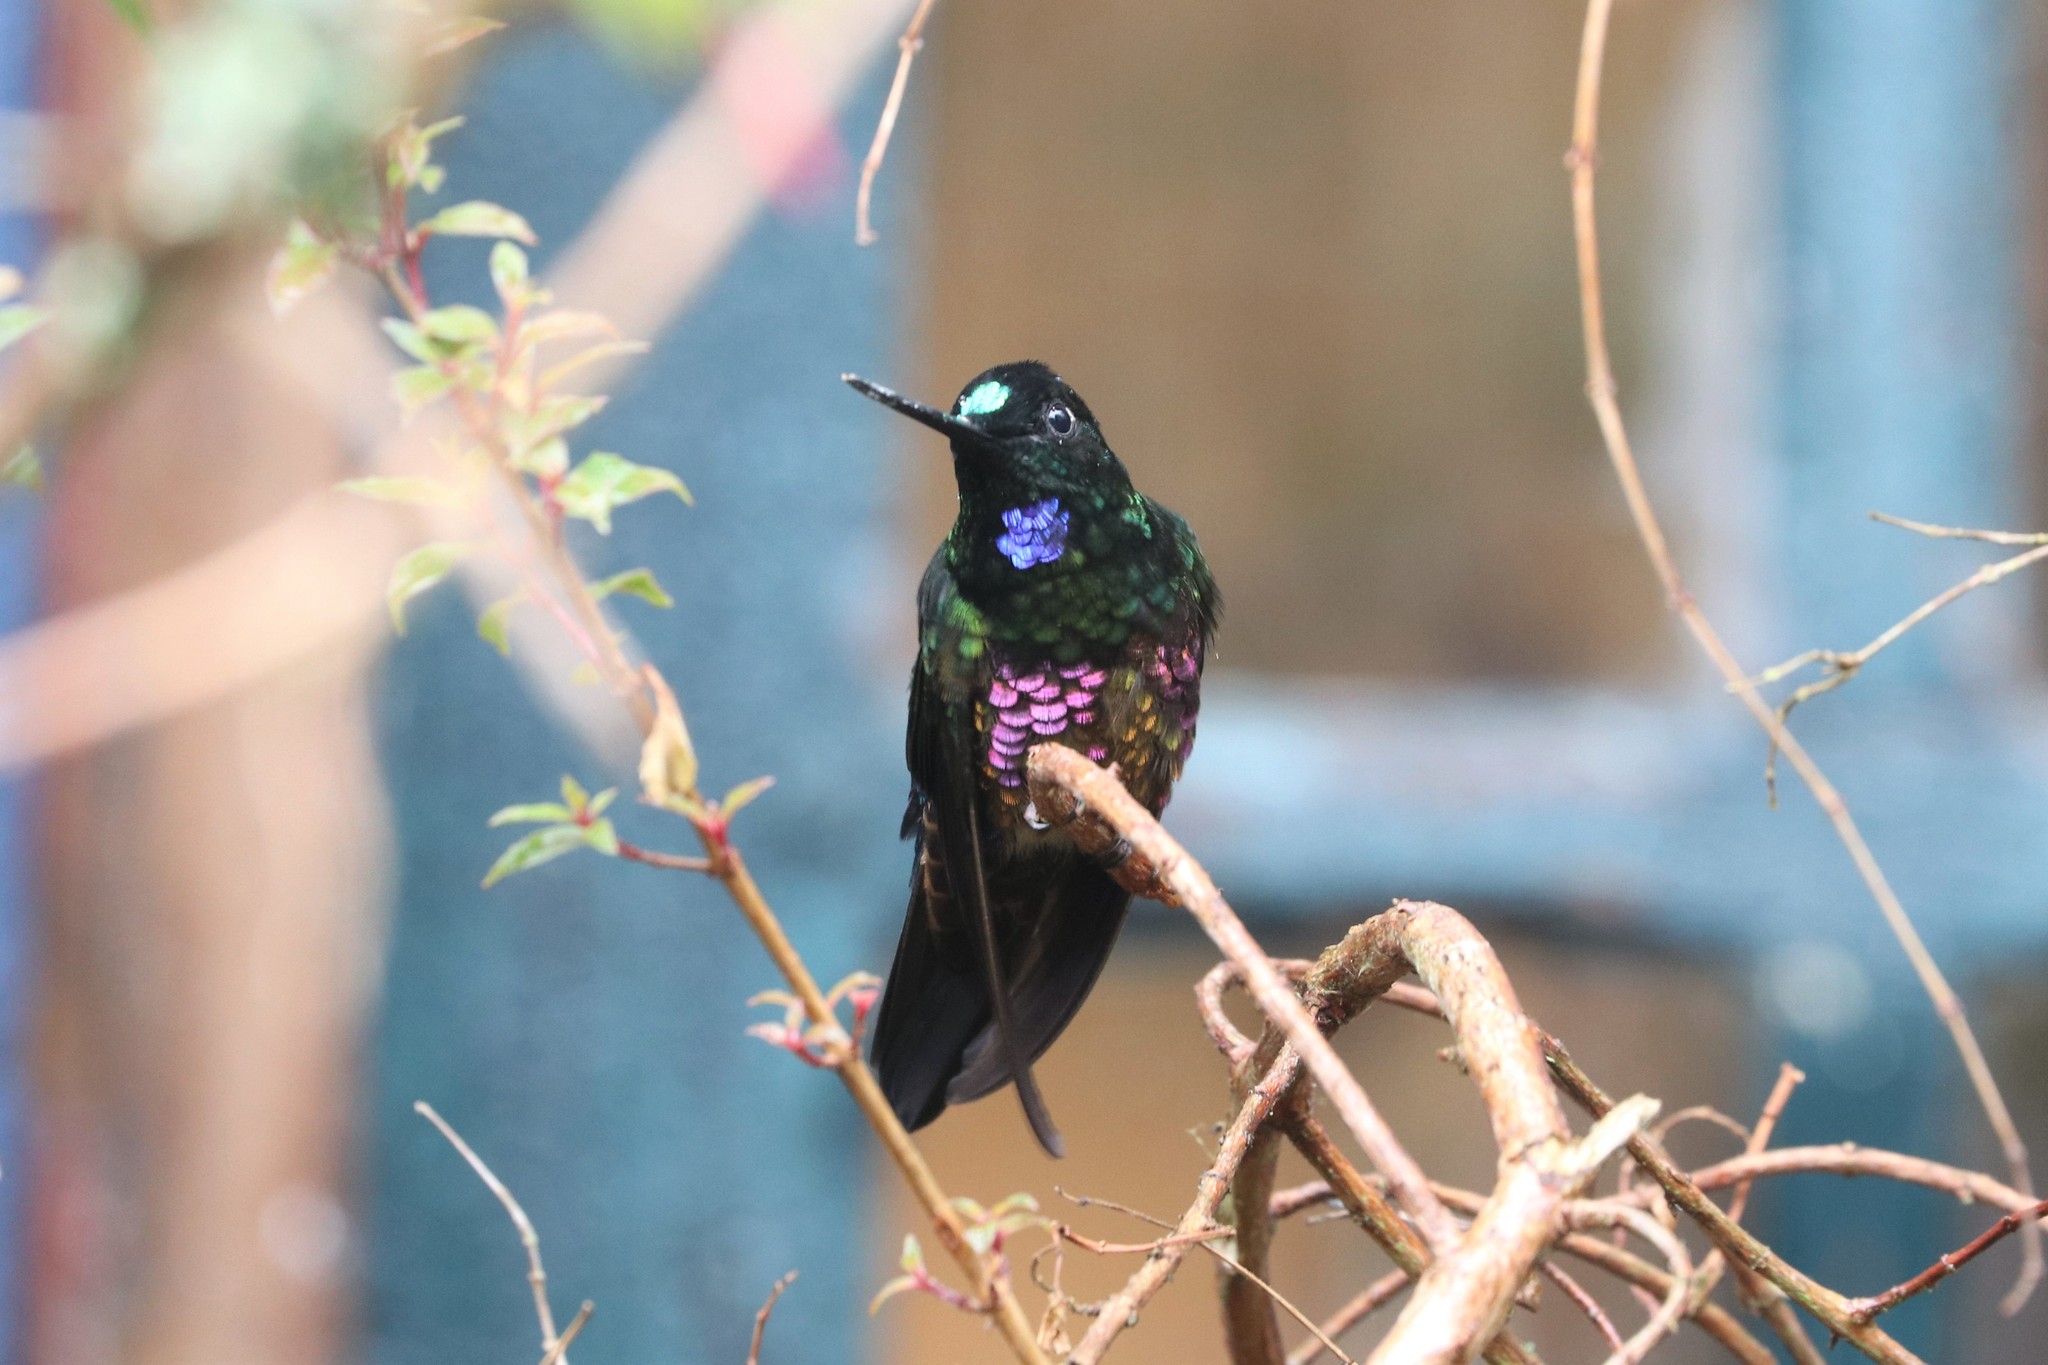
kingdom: Animalia
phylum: Chordata
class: Aves
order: Apodiformes
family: Trochilidae
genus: Coeligena
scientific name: Coeligena helianthea
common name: Blue-throated starfrontlet
